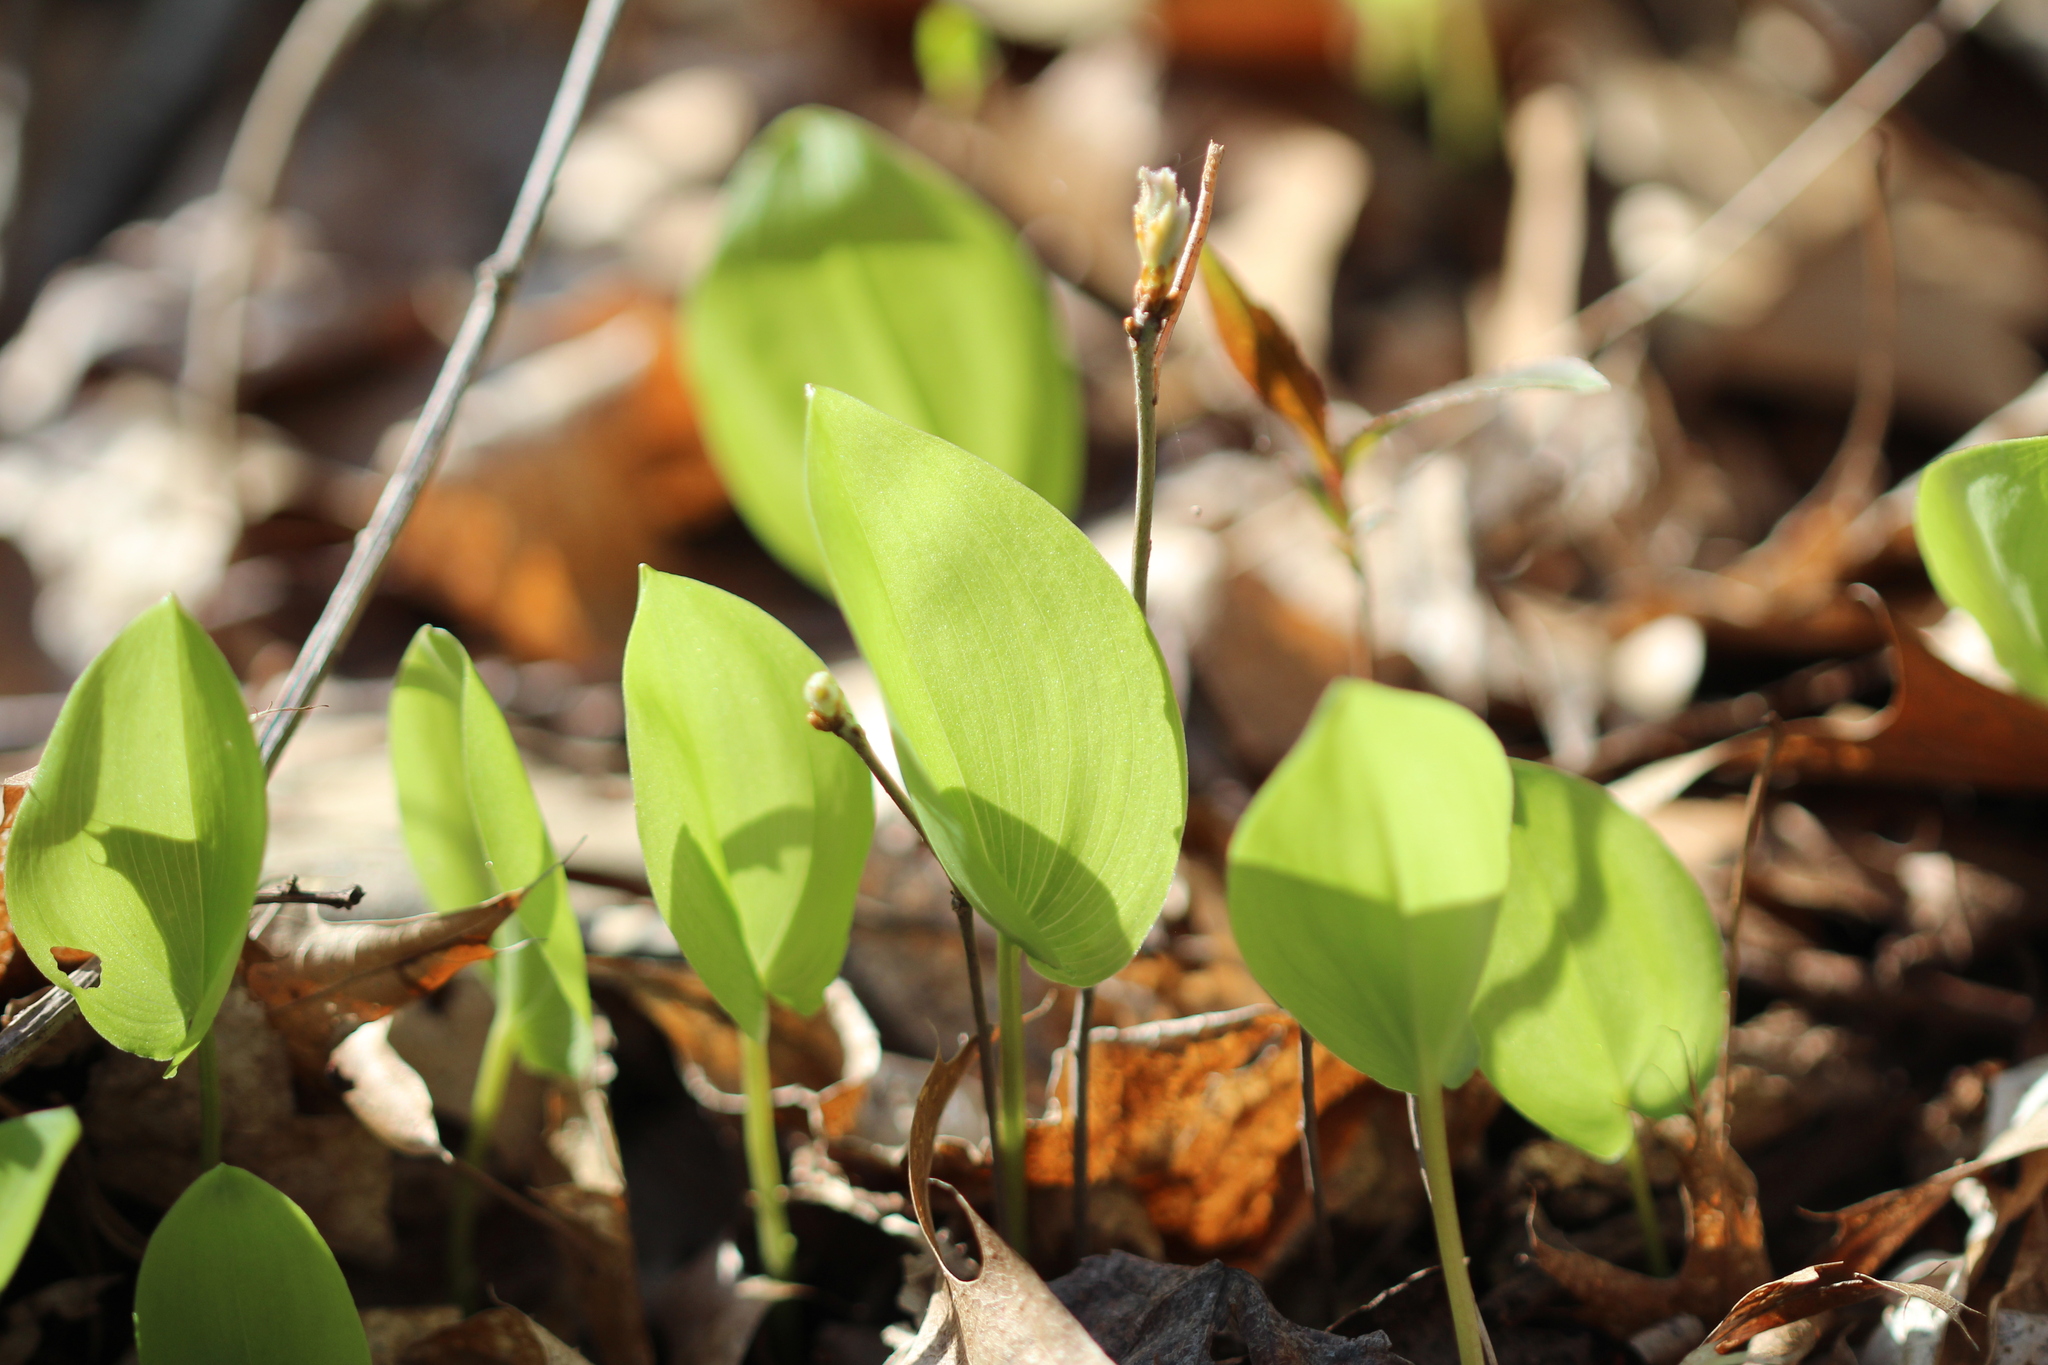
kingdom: Plantae
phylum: Tracheophyta
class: Liliopsida
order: Asparagales
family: Asparagaceae
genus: Maianthemum
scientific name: Maianthemum canadense
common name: False lily-of-the-valley
